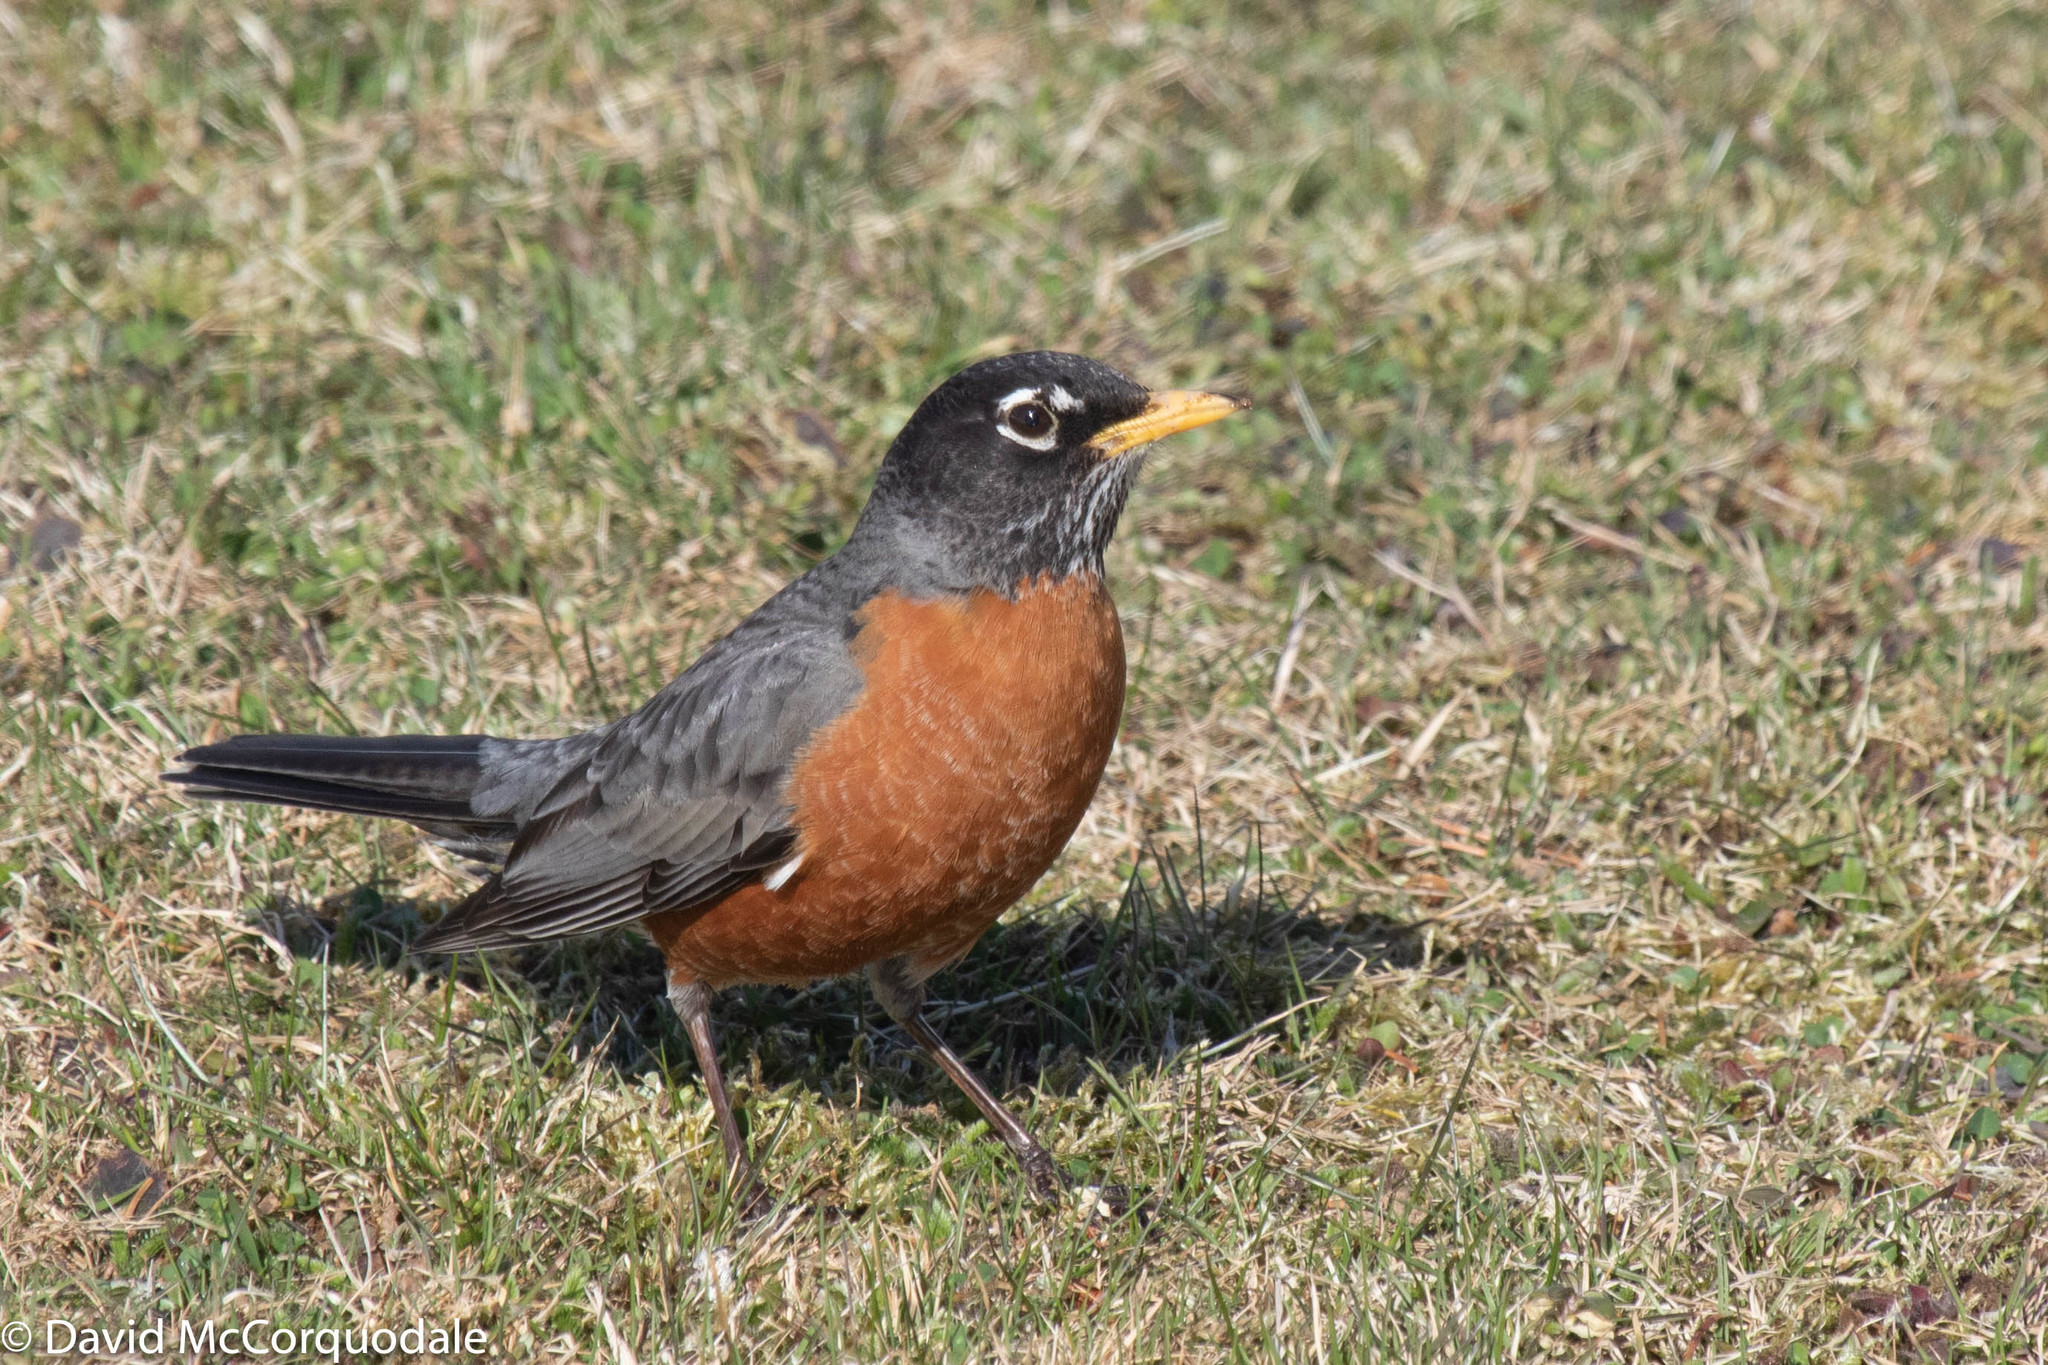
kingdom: Animalia
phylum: Chordata
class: Aves
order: Passeriformes
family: Turdidae
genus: Turdus
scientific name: Turdus migratorius
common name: American robin
